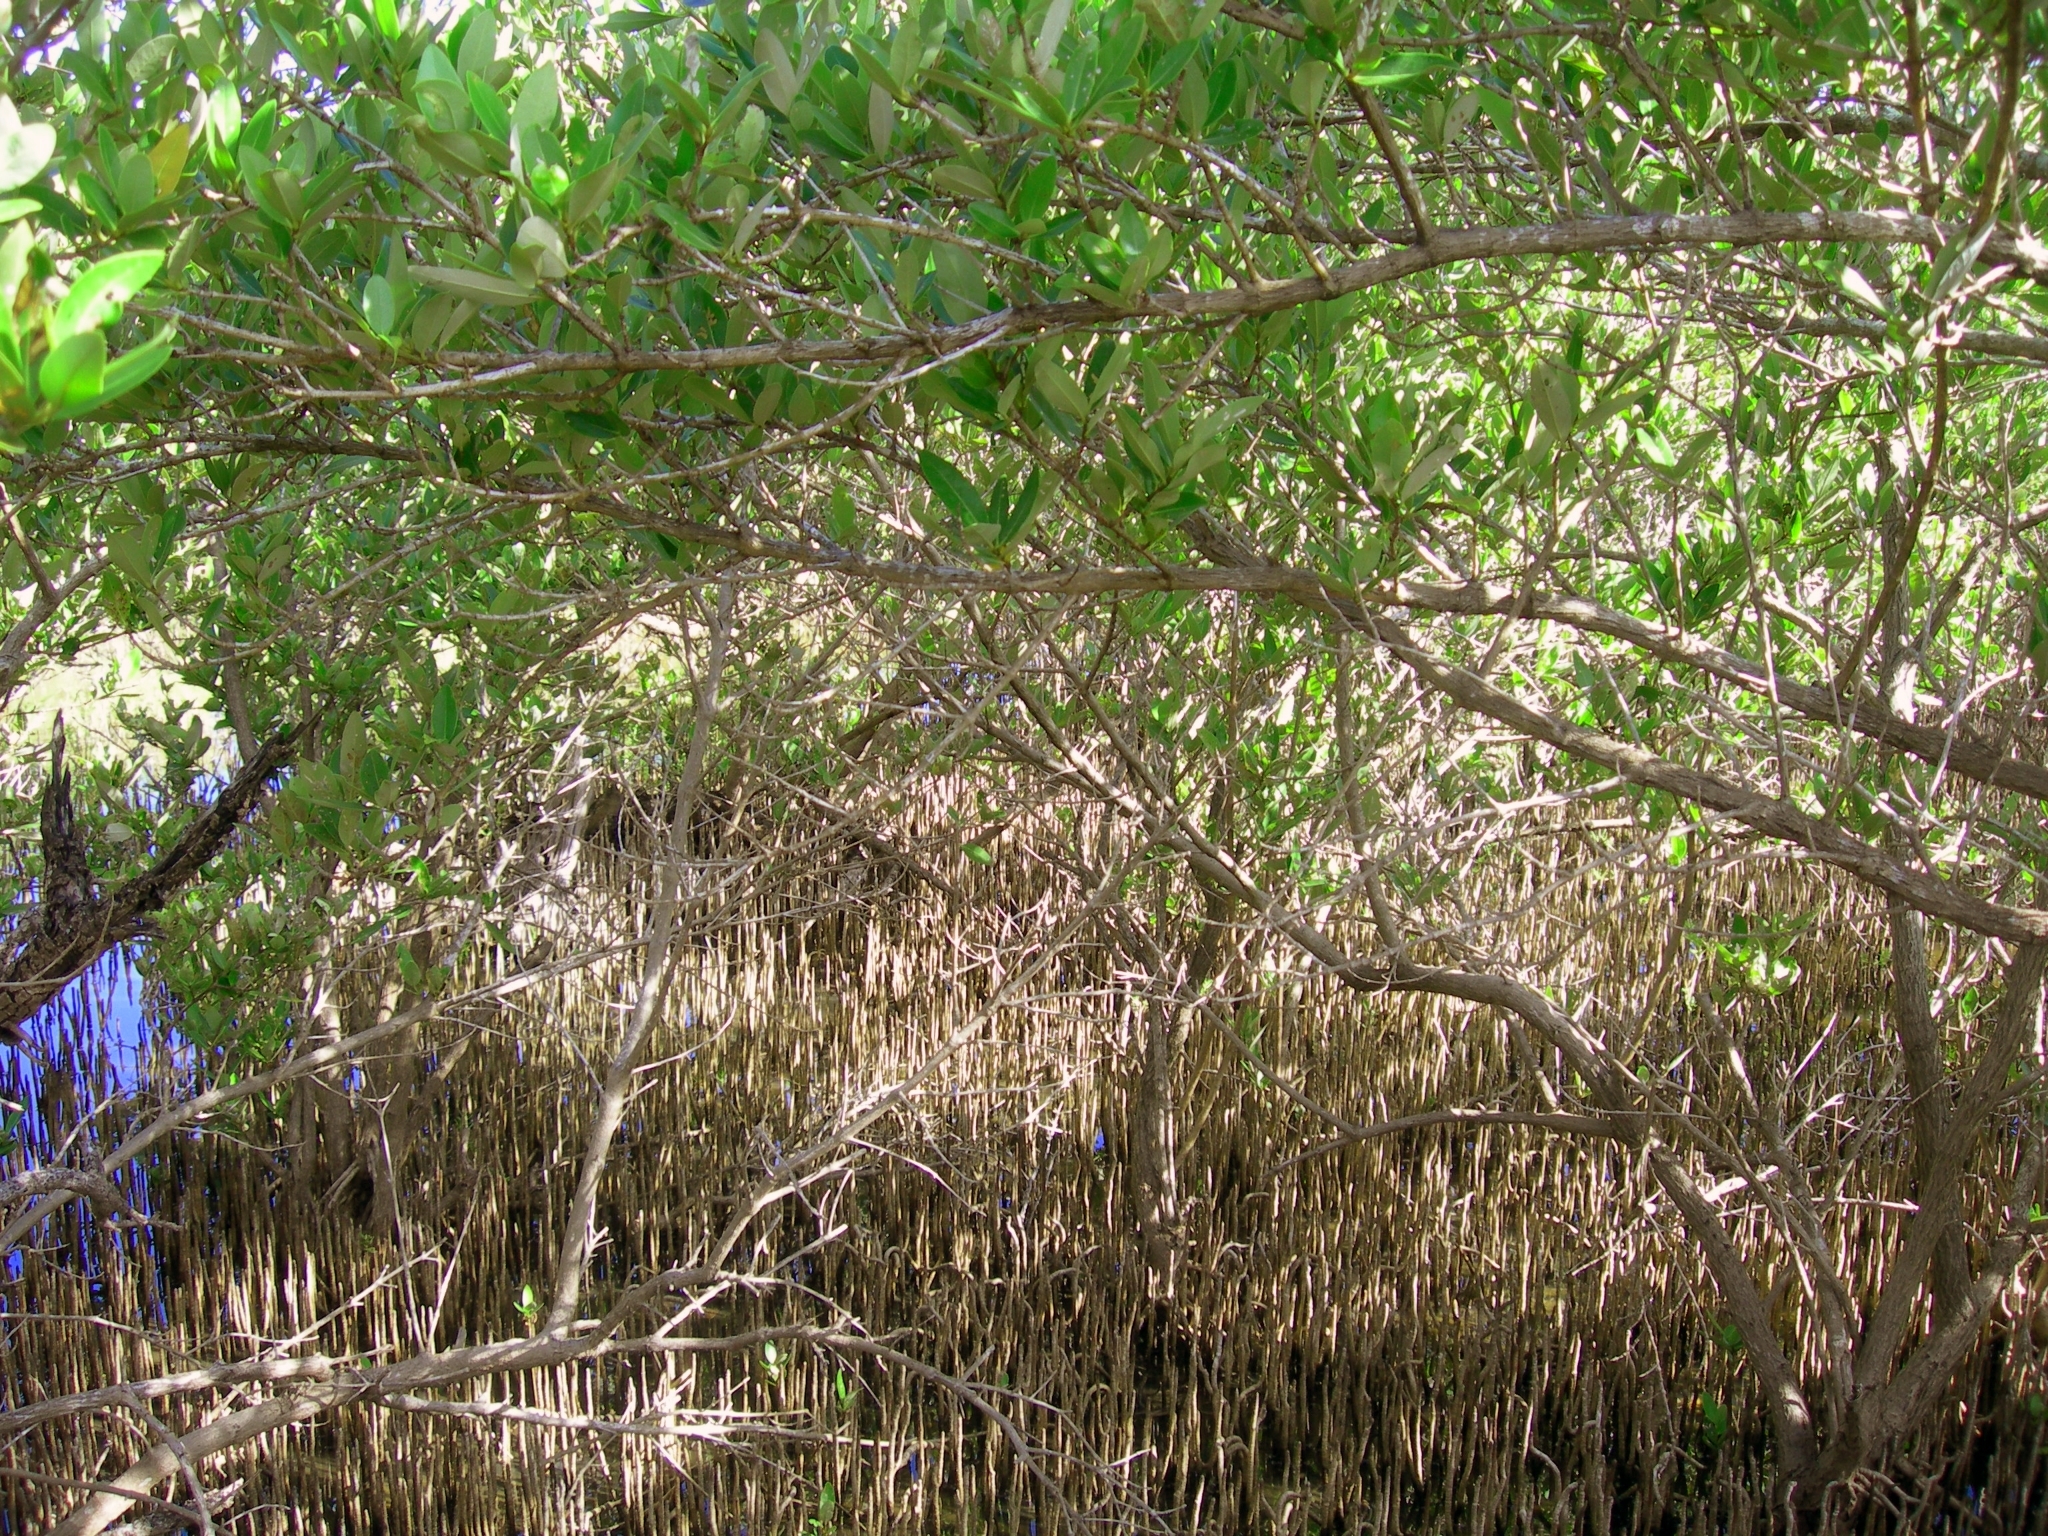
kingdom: Plantae
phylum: Tracheophyta
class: Magnoliopsida
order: Malpighiales
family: Rhizophoraceae
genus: Rhizophora
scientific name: Rhizophora mangle
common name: Red mangrove
